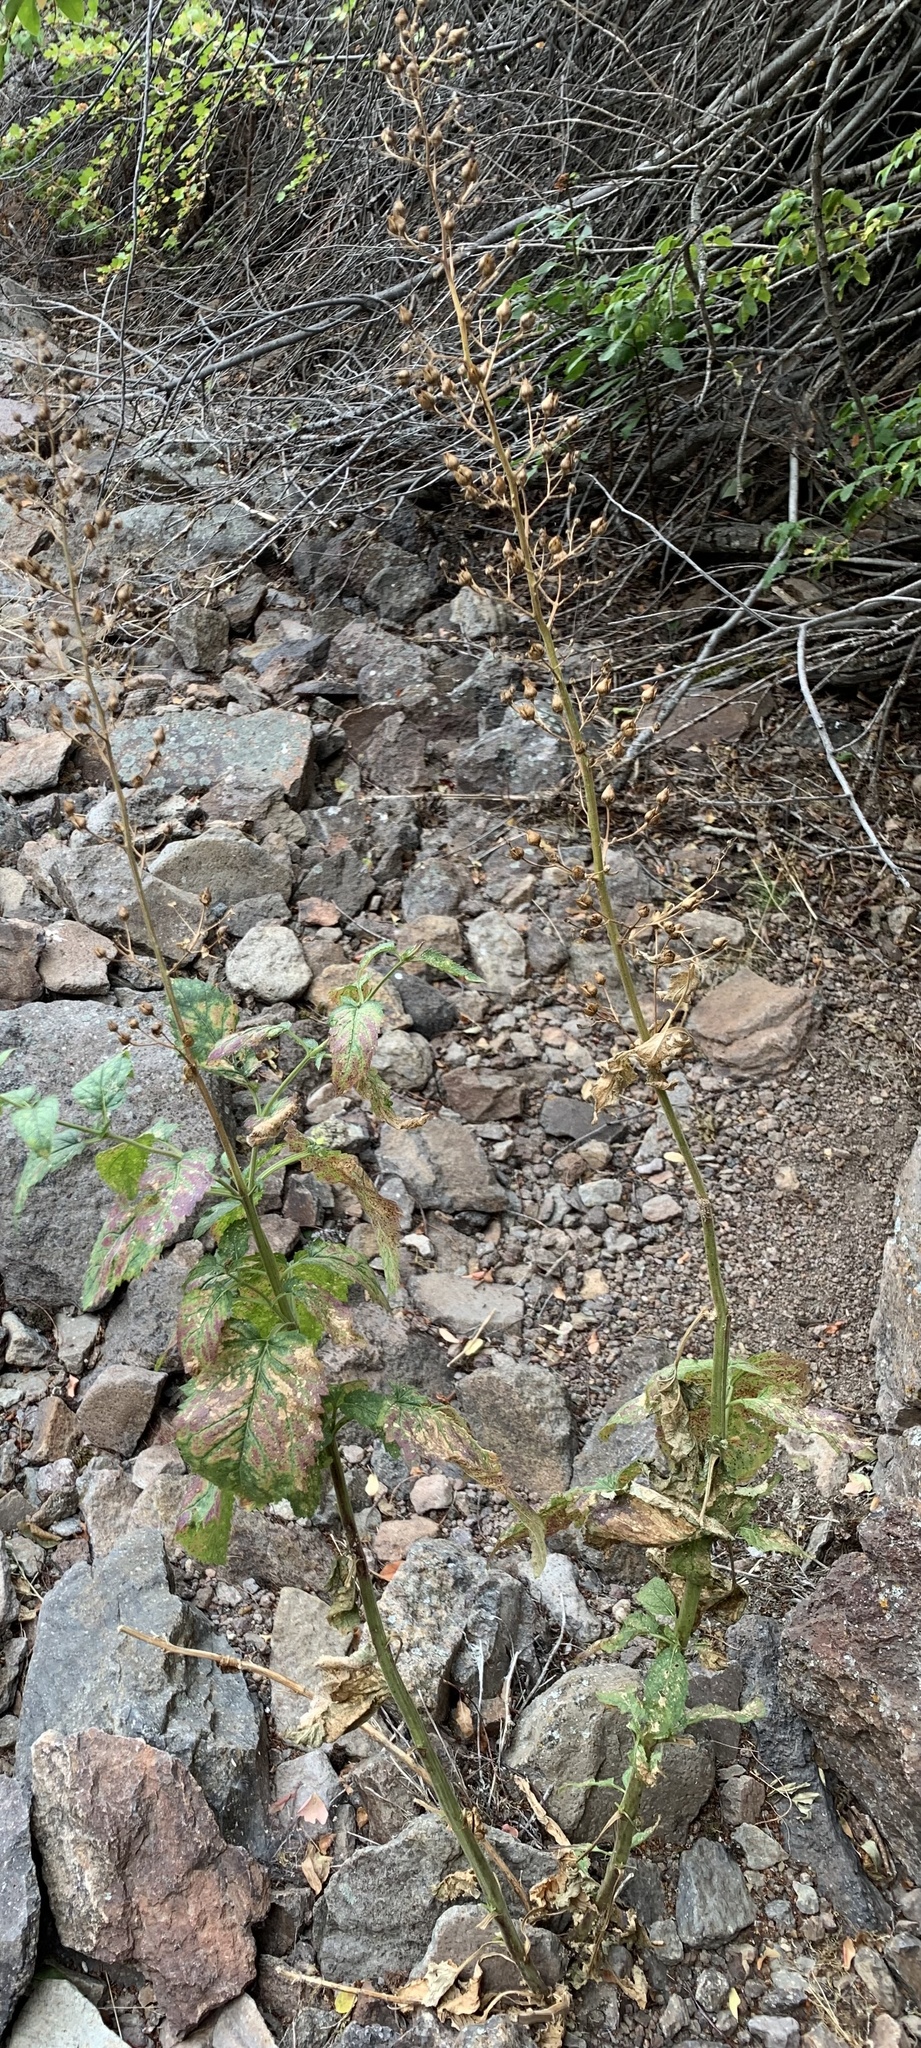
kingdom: Plantae
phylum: Tracheophyta
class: Magnoliopsida
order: Lamiales
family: Scrophulariaceae
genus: Scrophularia
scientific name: Scrophularia lanceolata
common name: American figwort
